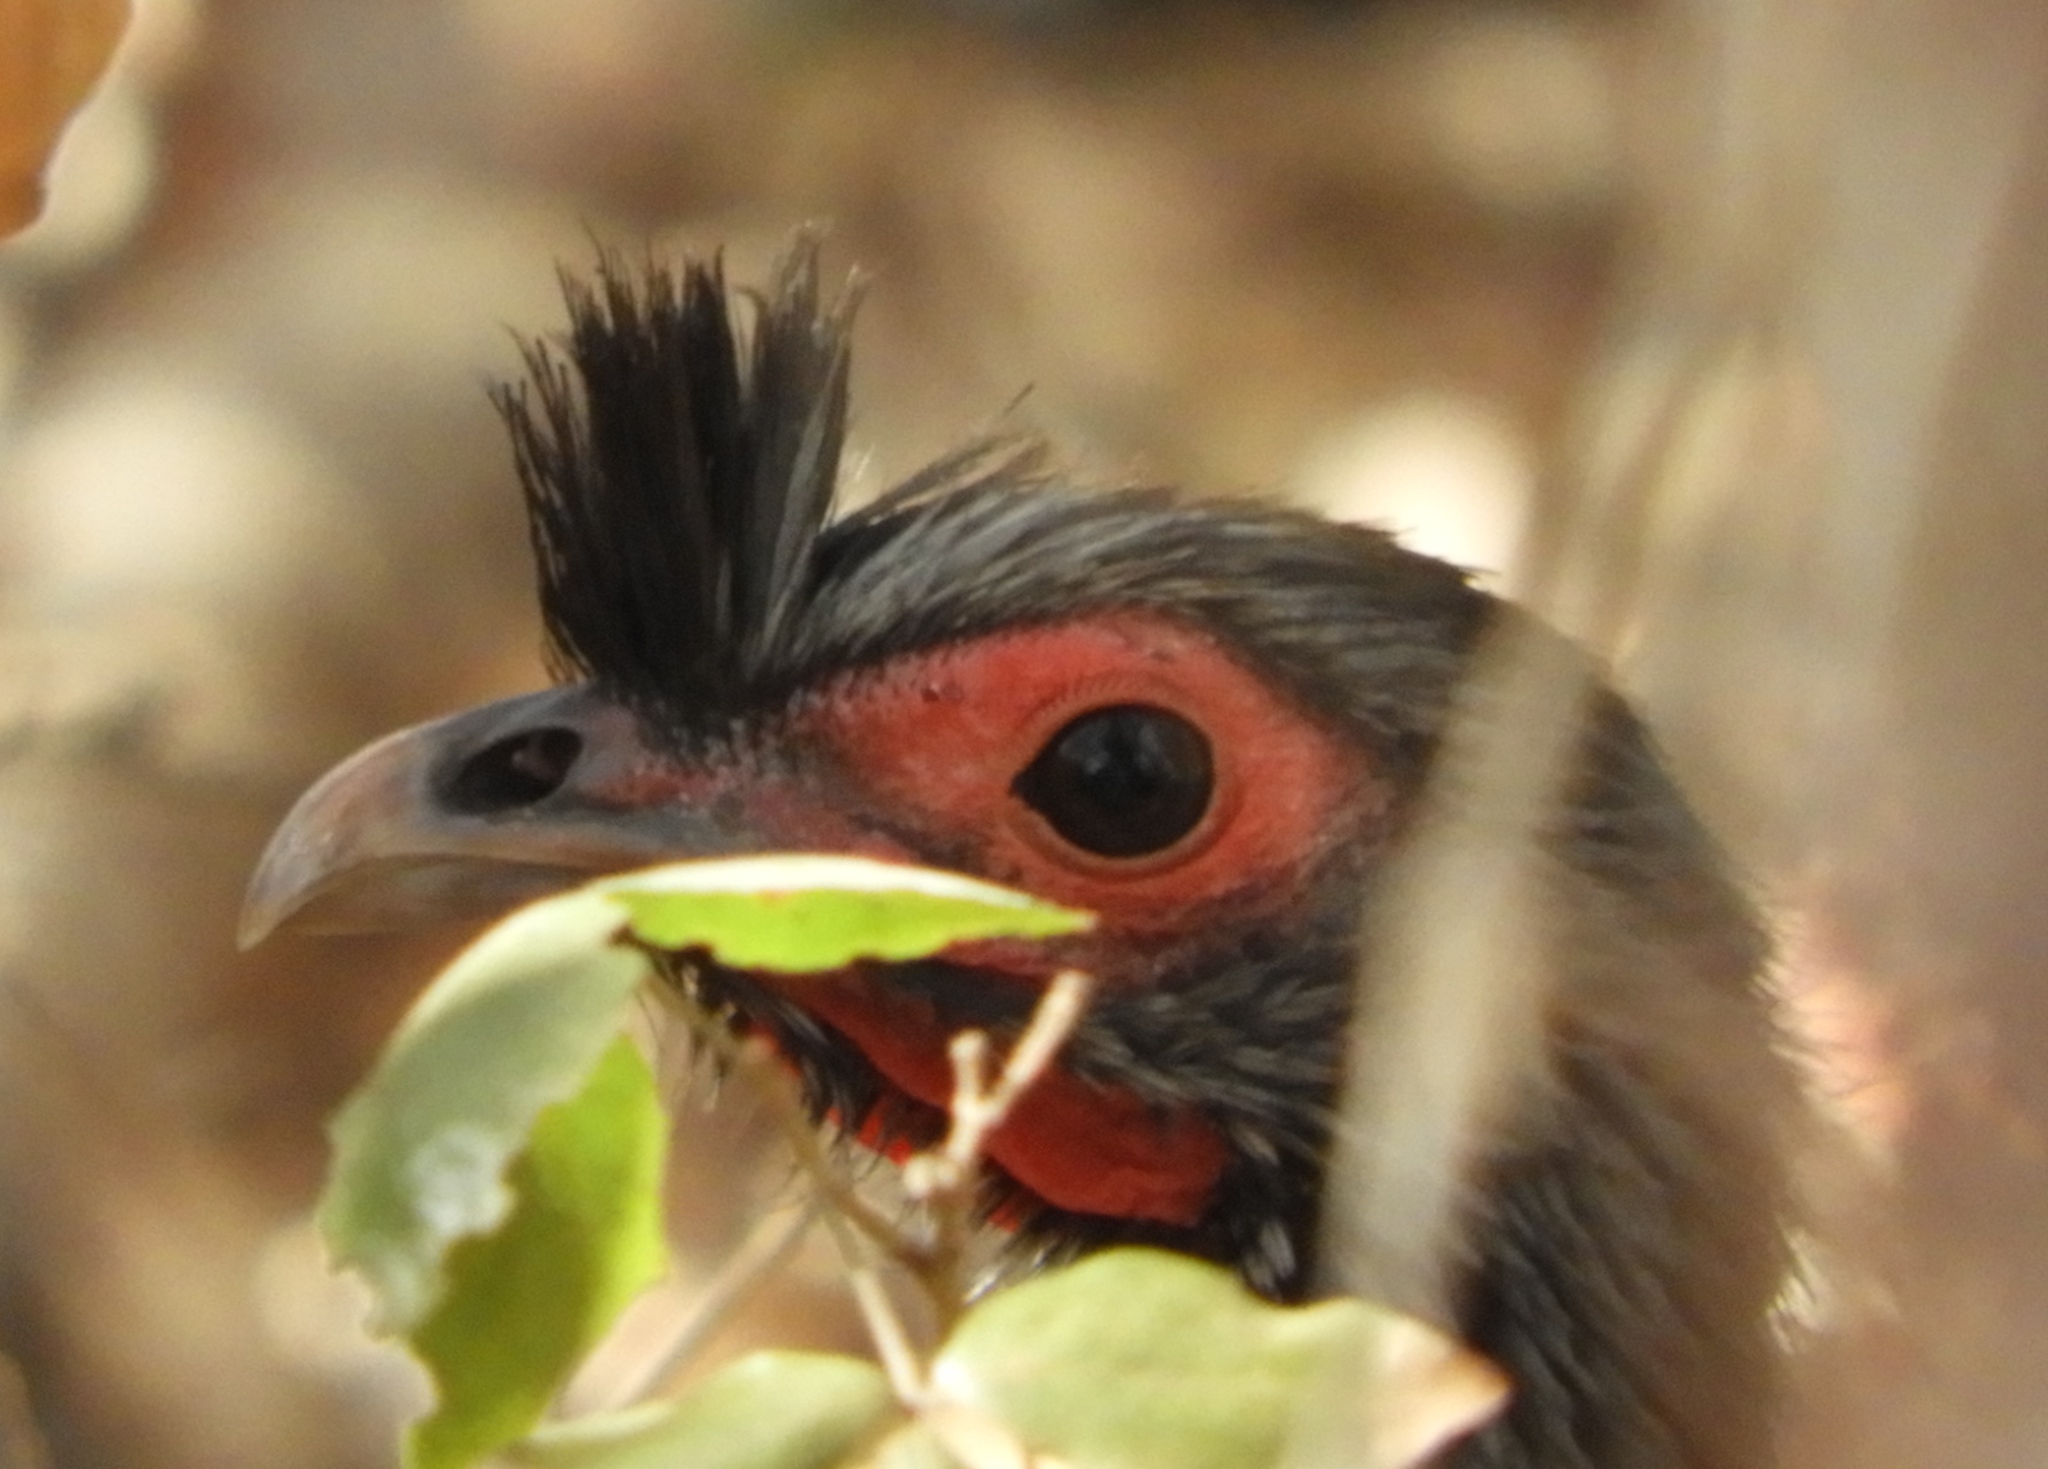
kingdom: Animalia
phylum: Chordata
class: Aves
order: Galliformes
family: Cracidae
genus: Ortalis
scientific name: Ortalis wagleri
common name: Rufous-bellied chachalaca
